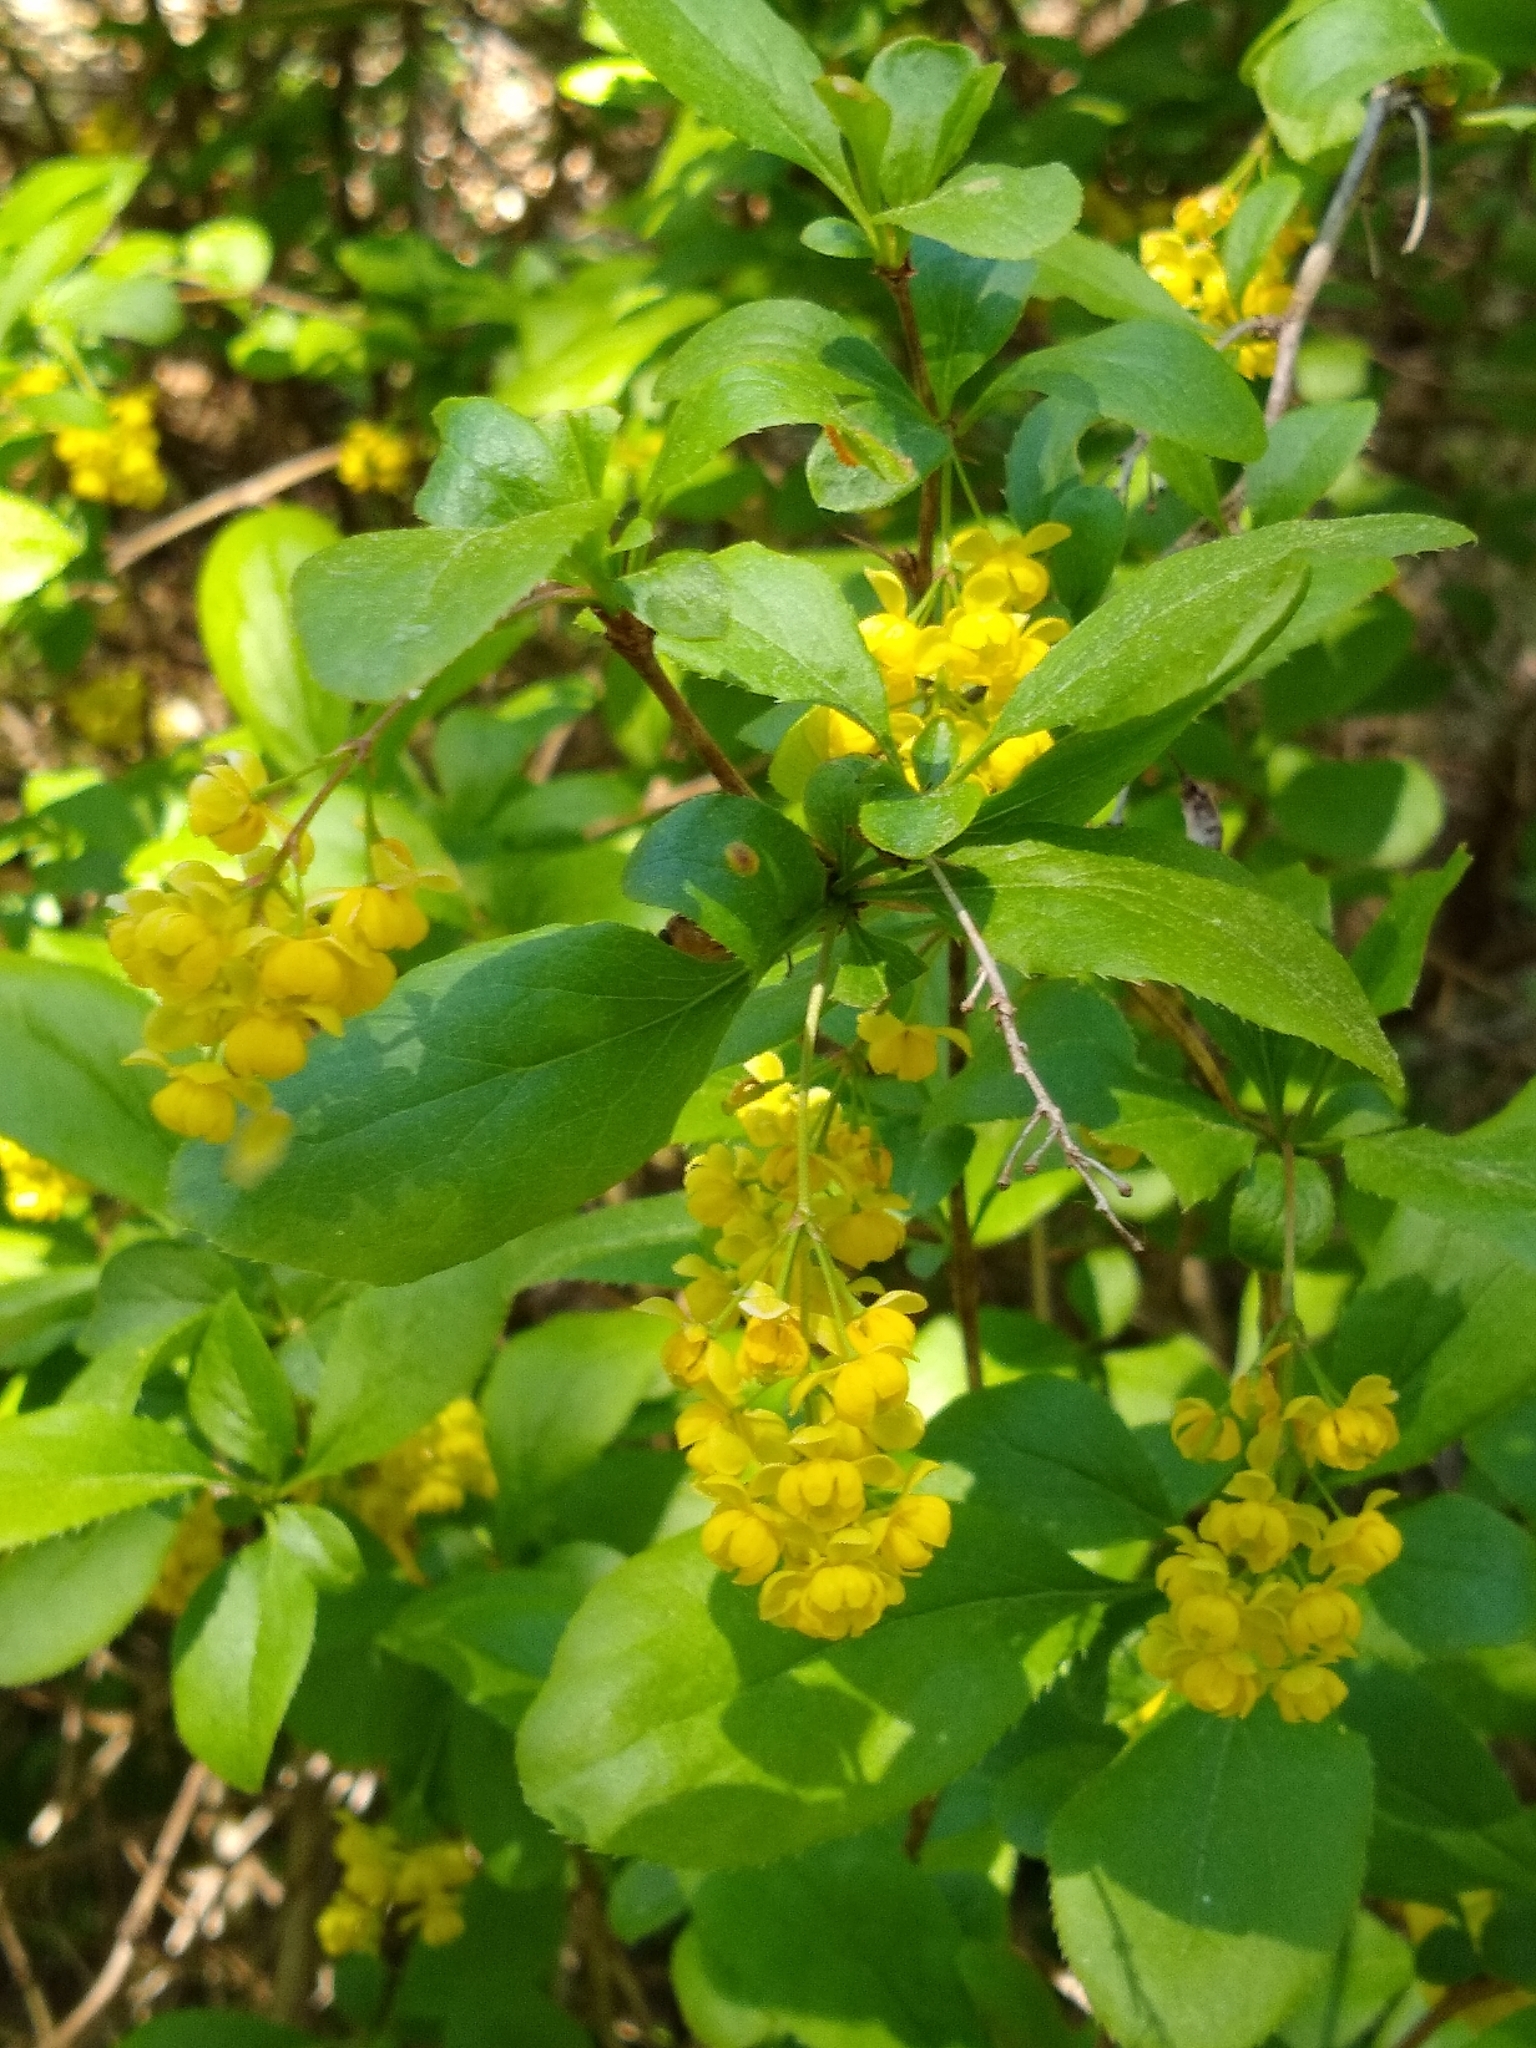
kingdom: Plantae
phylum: Tracheophyta
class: Magnoliopsida
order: Ranunculales
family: Berberidaceae
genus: Berberis
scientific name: Berberis vulgaris
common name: Barberry
